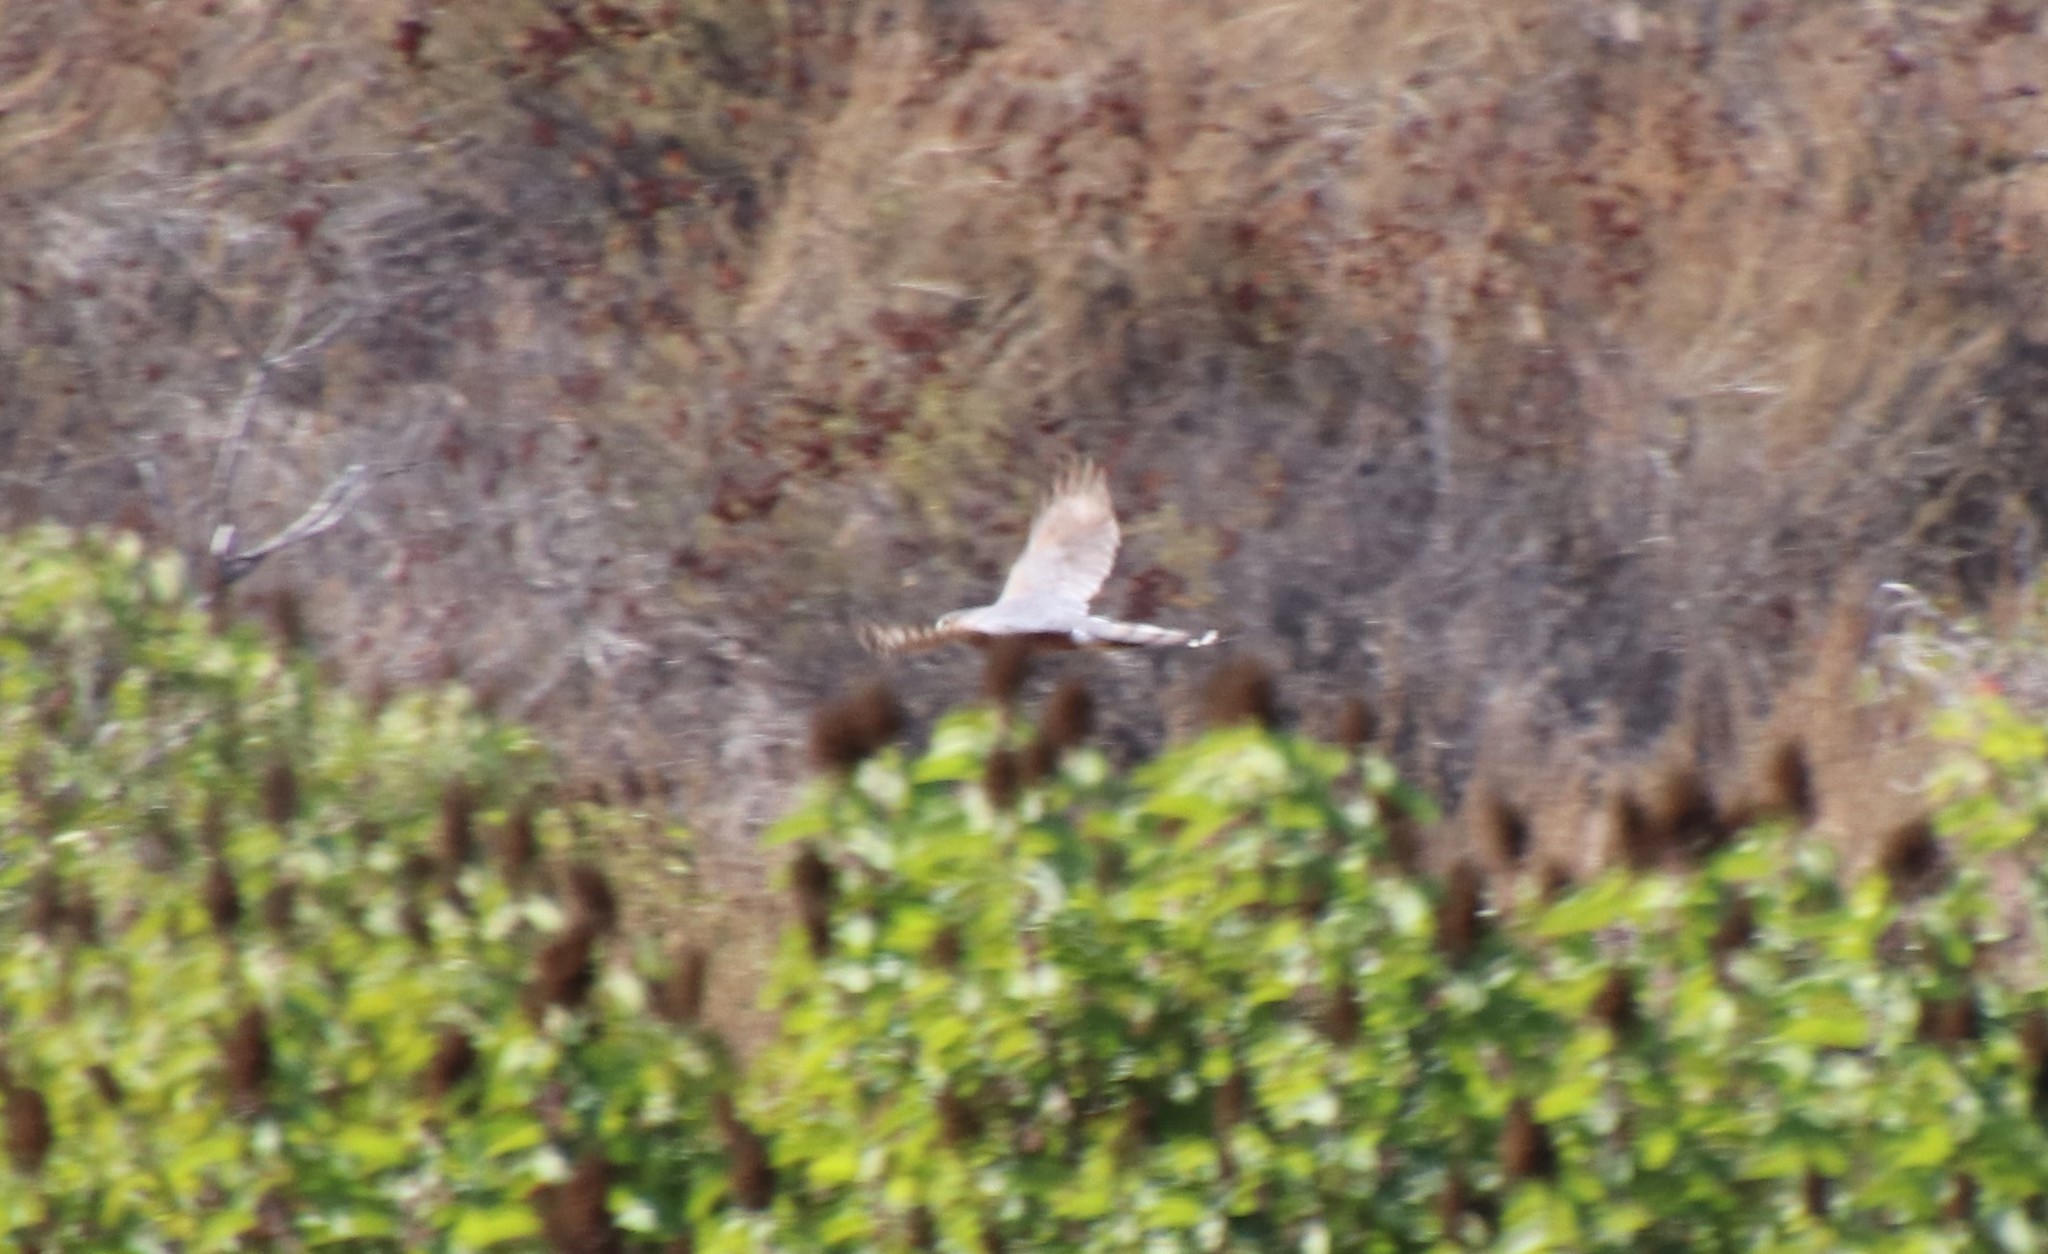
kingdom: Animalia
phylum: Chordata
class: Aves
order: Accipitriformes
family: Accipitridae
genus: Accipiter
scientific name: Accipiter cooperii
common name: Cooper's hawk
